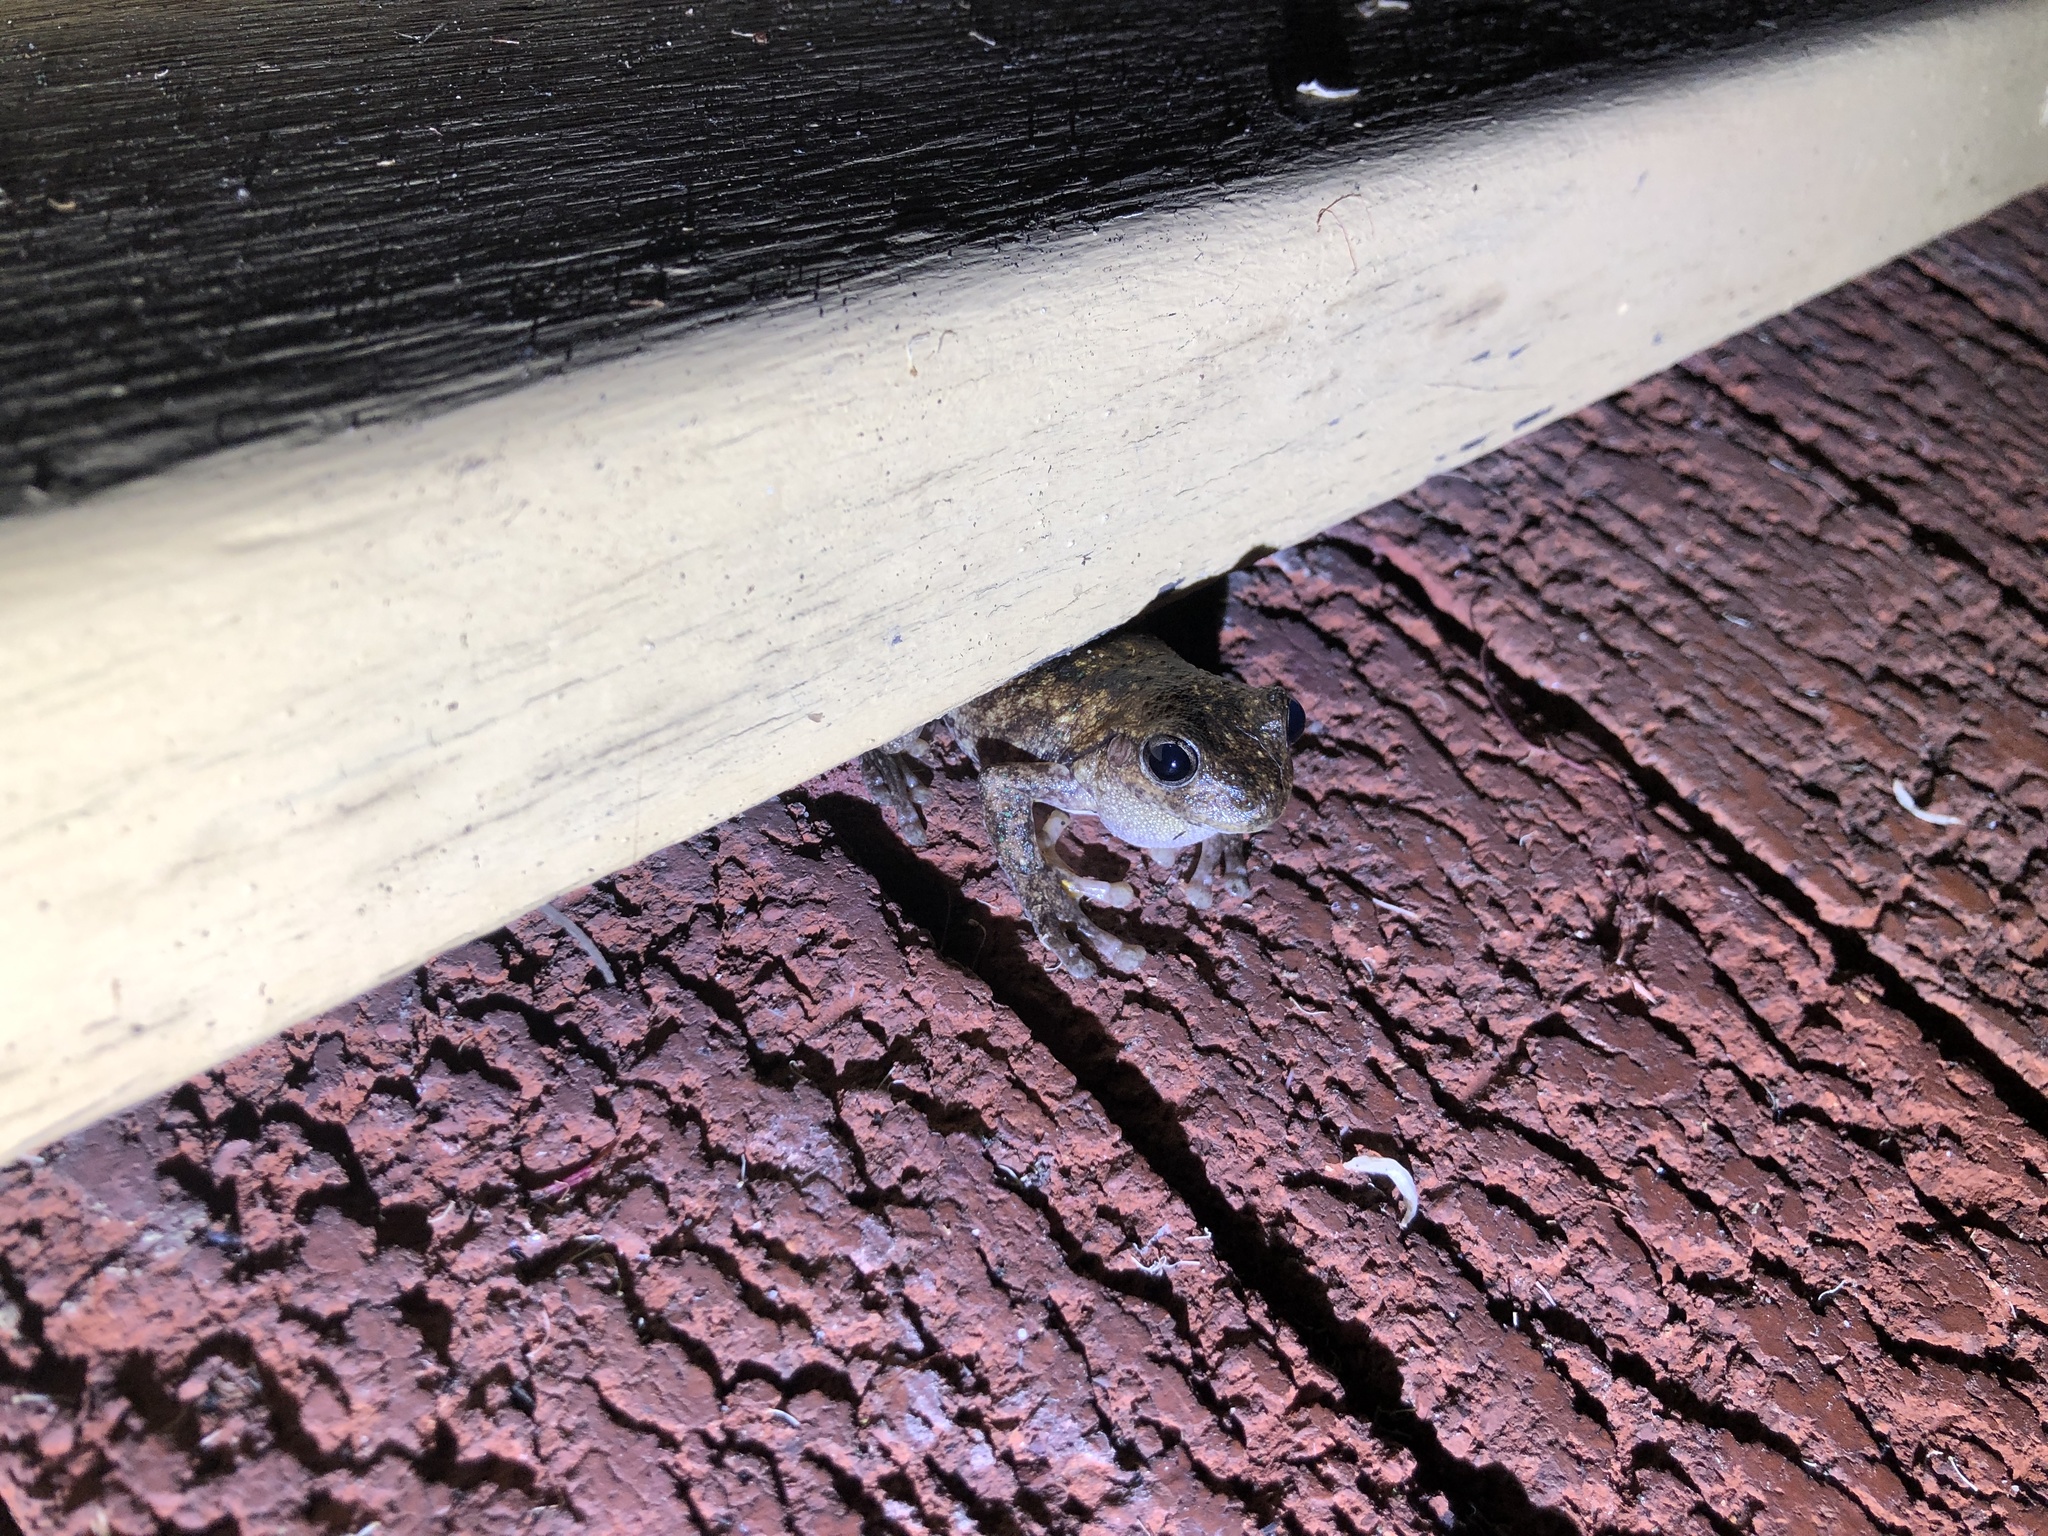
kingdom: Animalia
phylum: Chordata
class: Amphibia
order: Anura
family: Pelodryadidae
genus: Litoria
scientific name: Litoria peronii
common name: Emerald spotted treefrog
